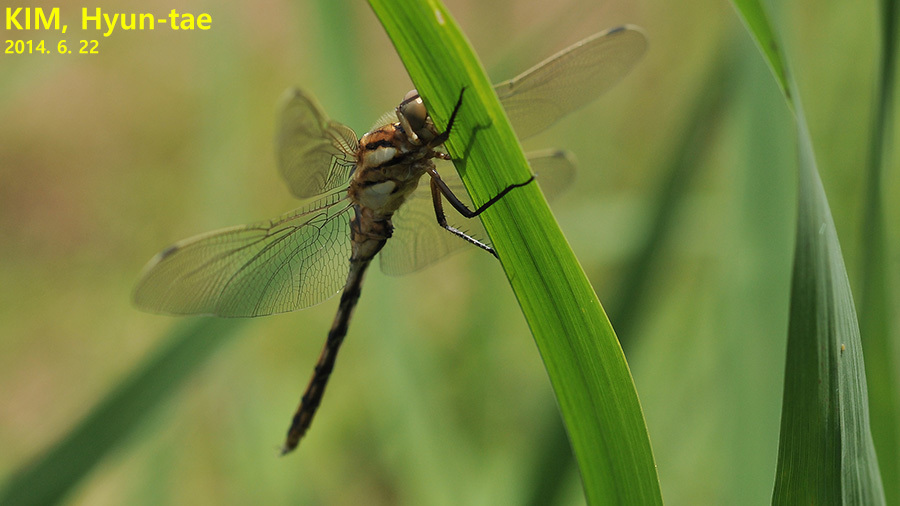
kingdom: Animalia
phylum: Arthropoda
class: Insecta
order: Odonata
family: Libellulidae
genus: Orthetrum
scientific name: Orthetrum albistylum
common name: White-tailed skimmer
